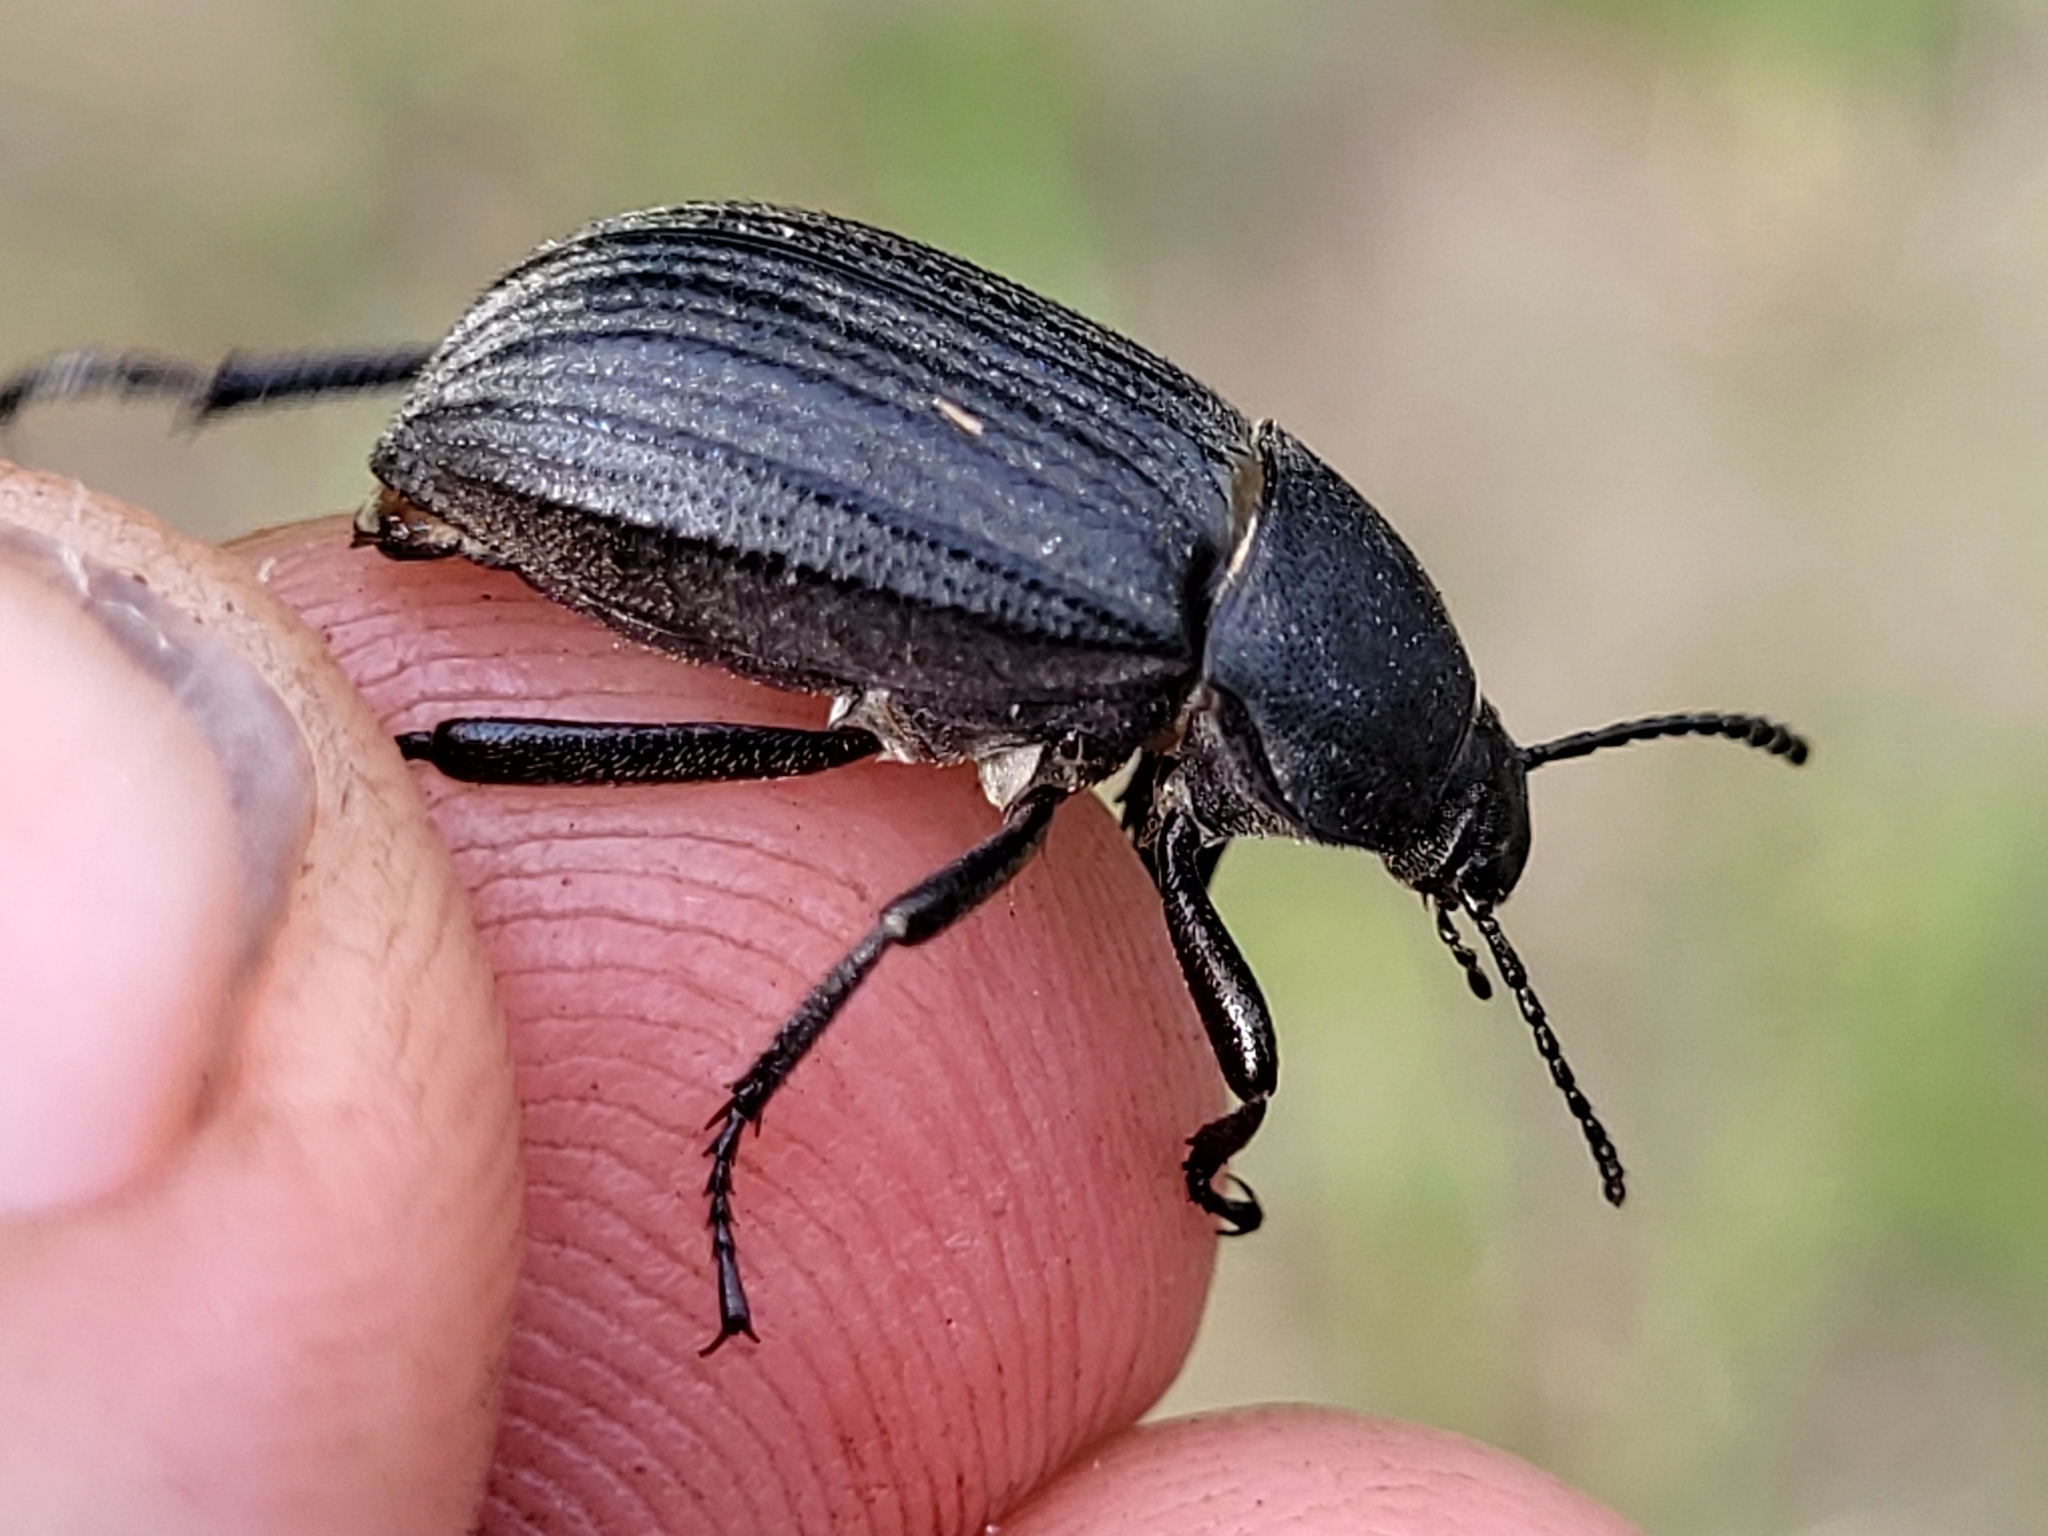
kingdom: Animalia
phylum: Arthropoda
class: Insecta
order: Coleoptera
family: Tenebrionidae
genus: Eleodes
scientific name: Eleodes tricostata
